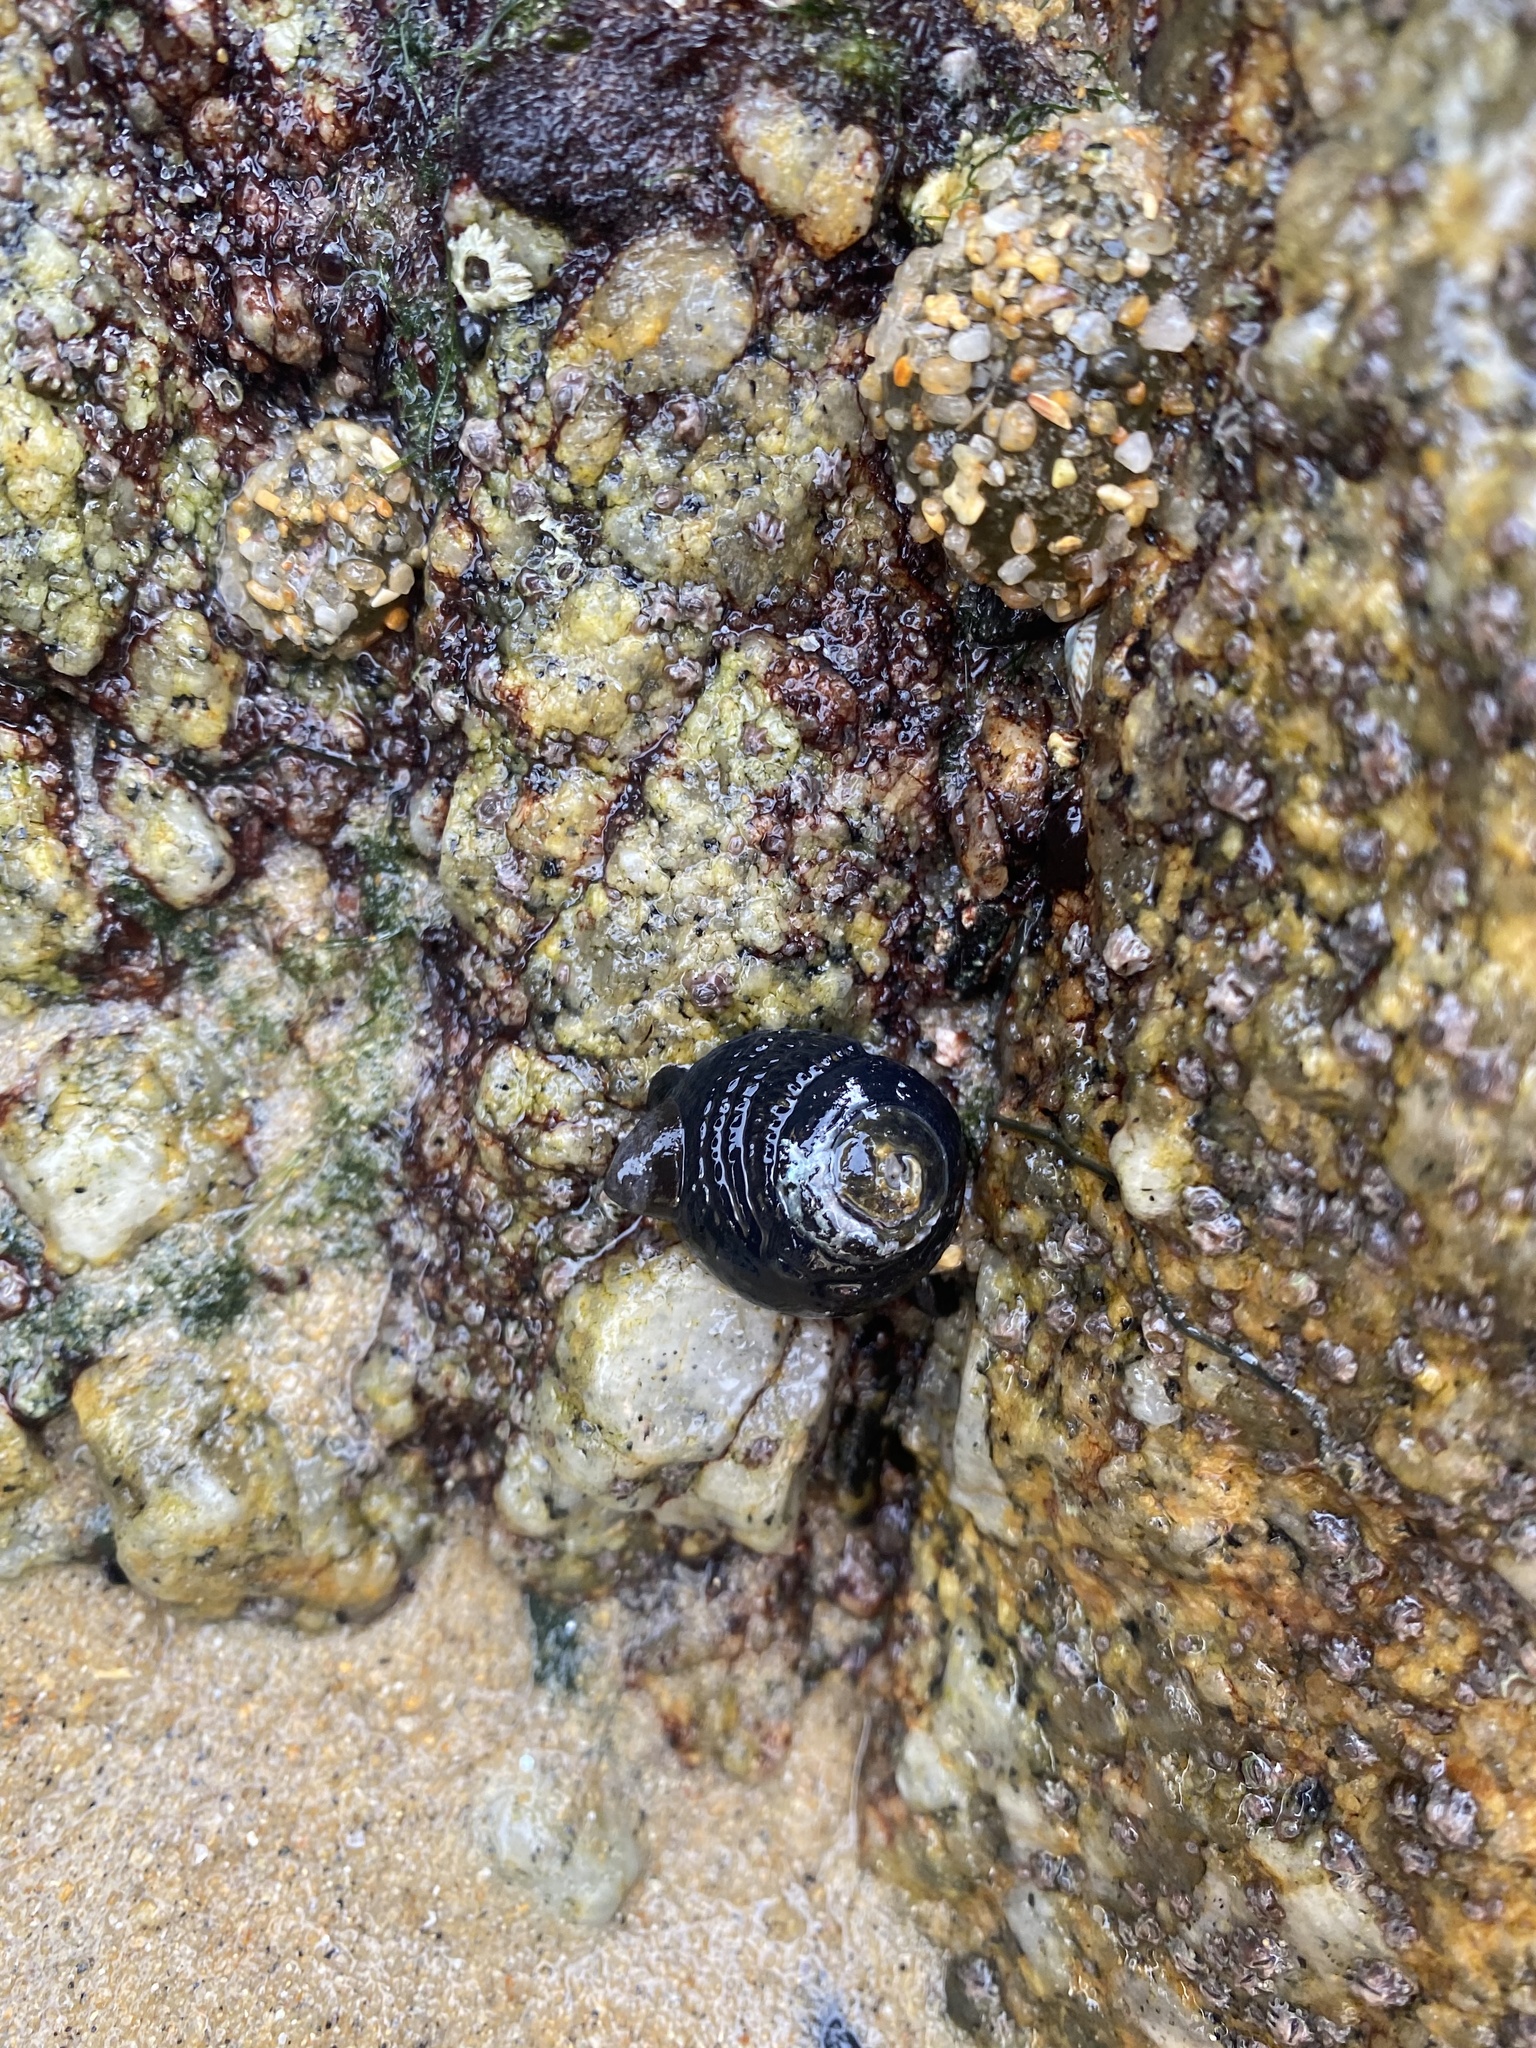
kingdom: Animalia
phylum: Mollusca
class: Gastropoda
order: Trochida
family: Tegulidae
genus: Tegula
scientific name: Tegula funebralis
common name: Black tegula
